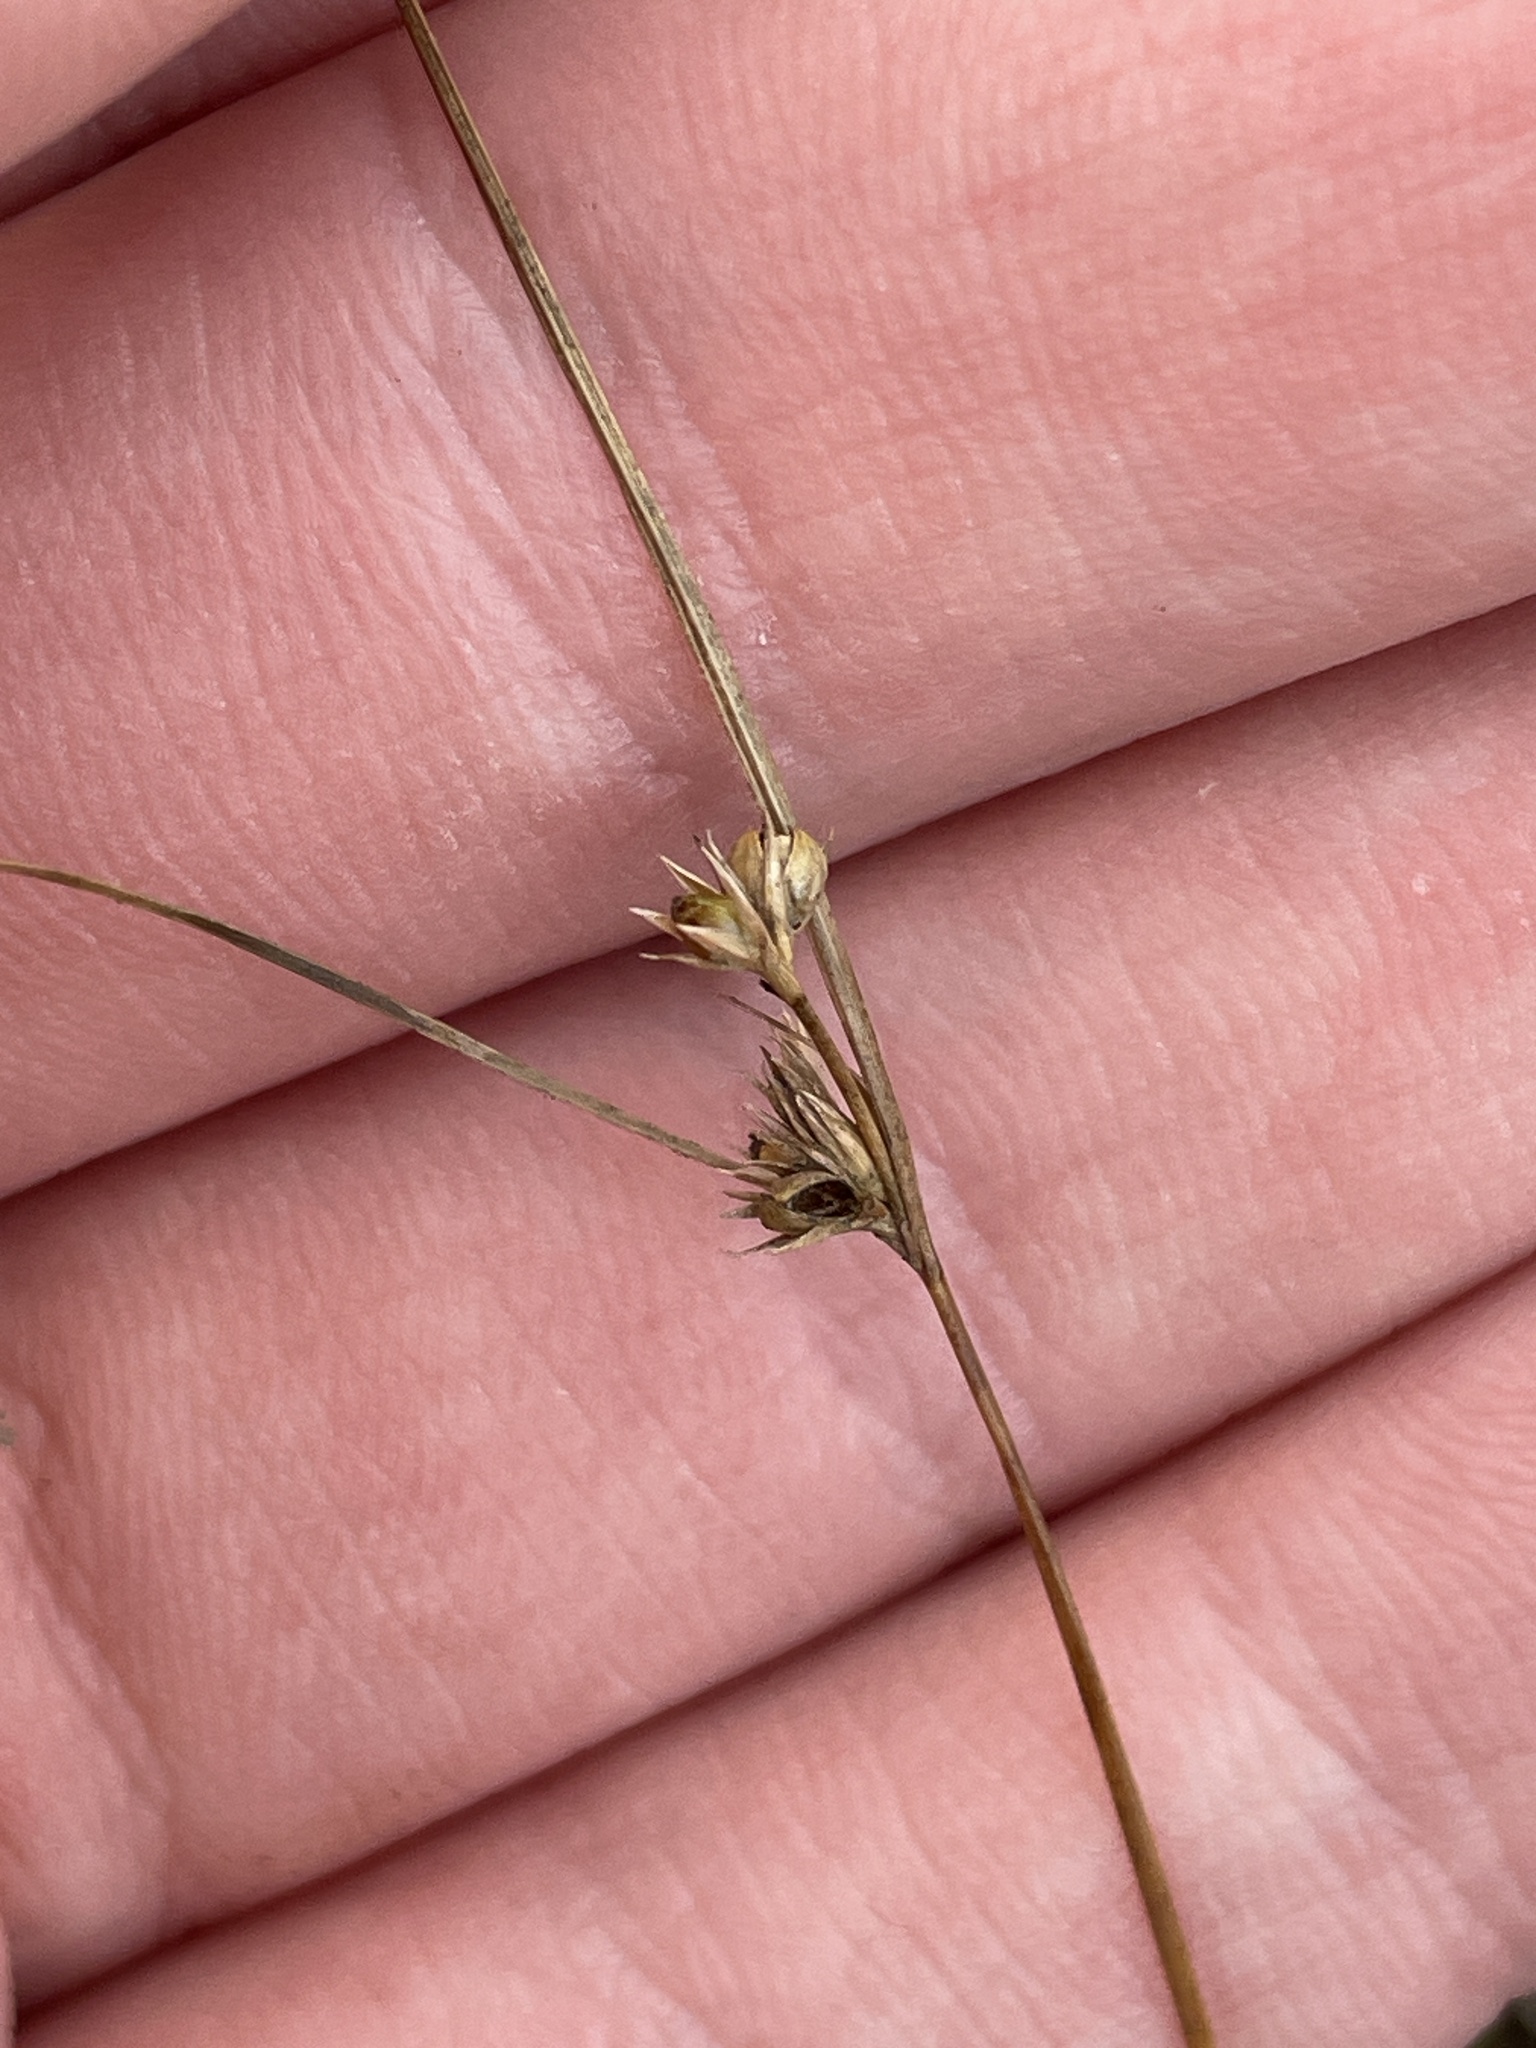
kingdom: Plantae
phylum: Tracheophyta
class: Liliopsida
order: Poales
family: Juncaceae
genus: Juncus
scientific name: Juncus tenuis
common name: Slender rush
